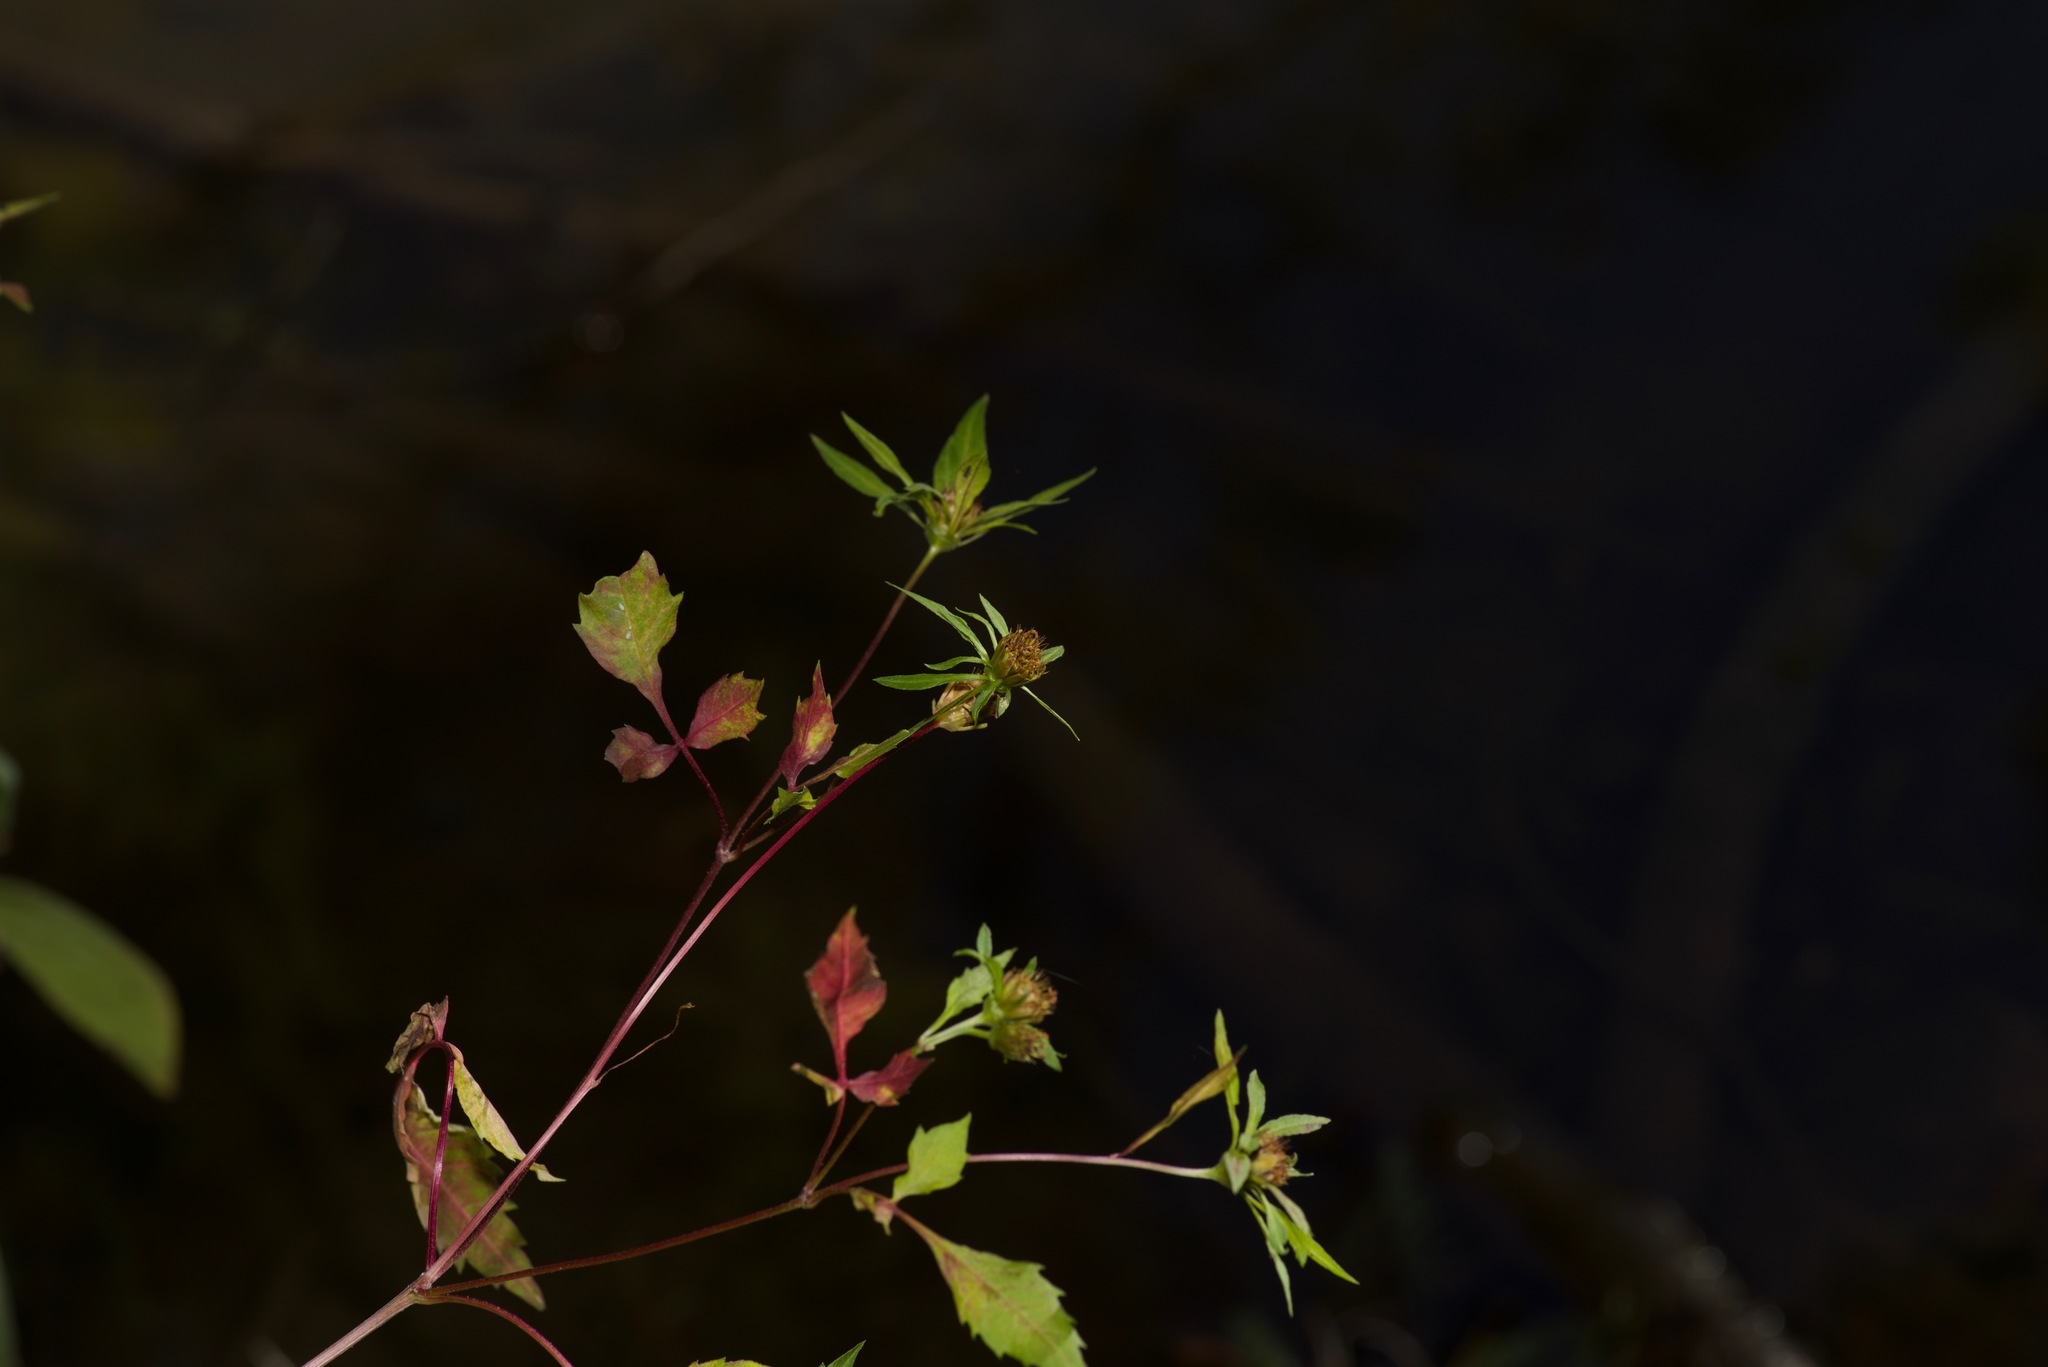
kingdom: Plantae
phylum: Tracheophyta
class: Magnoliopsida
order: Asterales
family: Asteraceae
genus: Bidens
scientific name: Bidens frondosa
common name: Beggarticks
